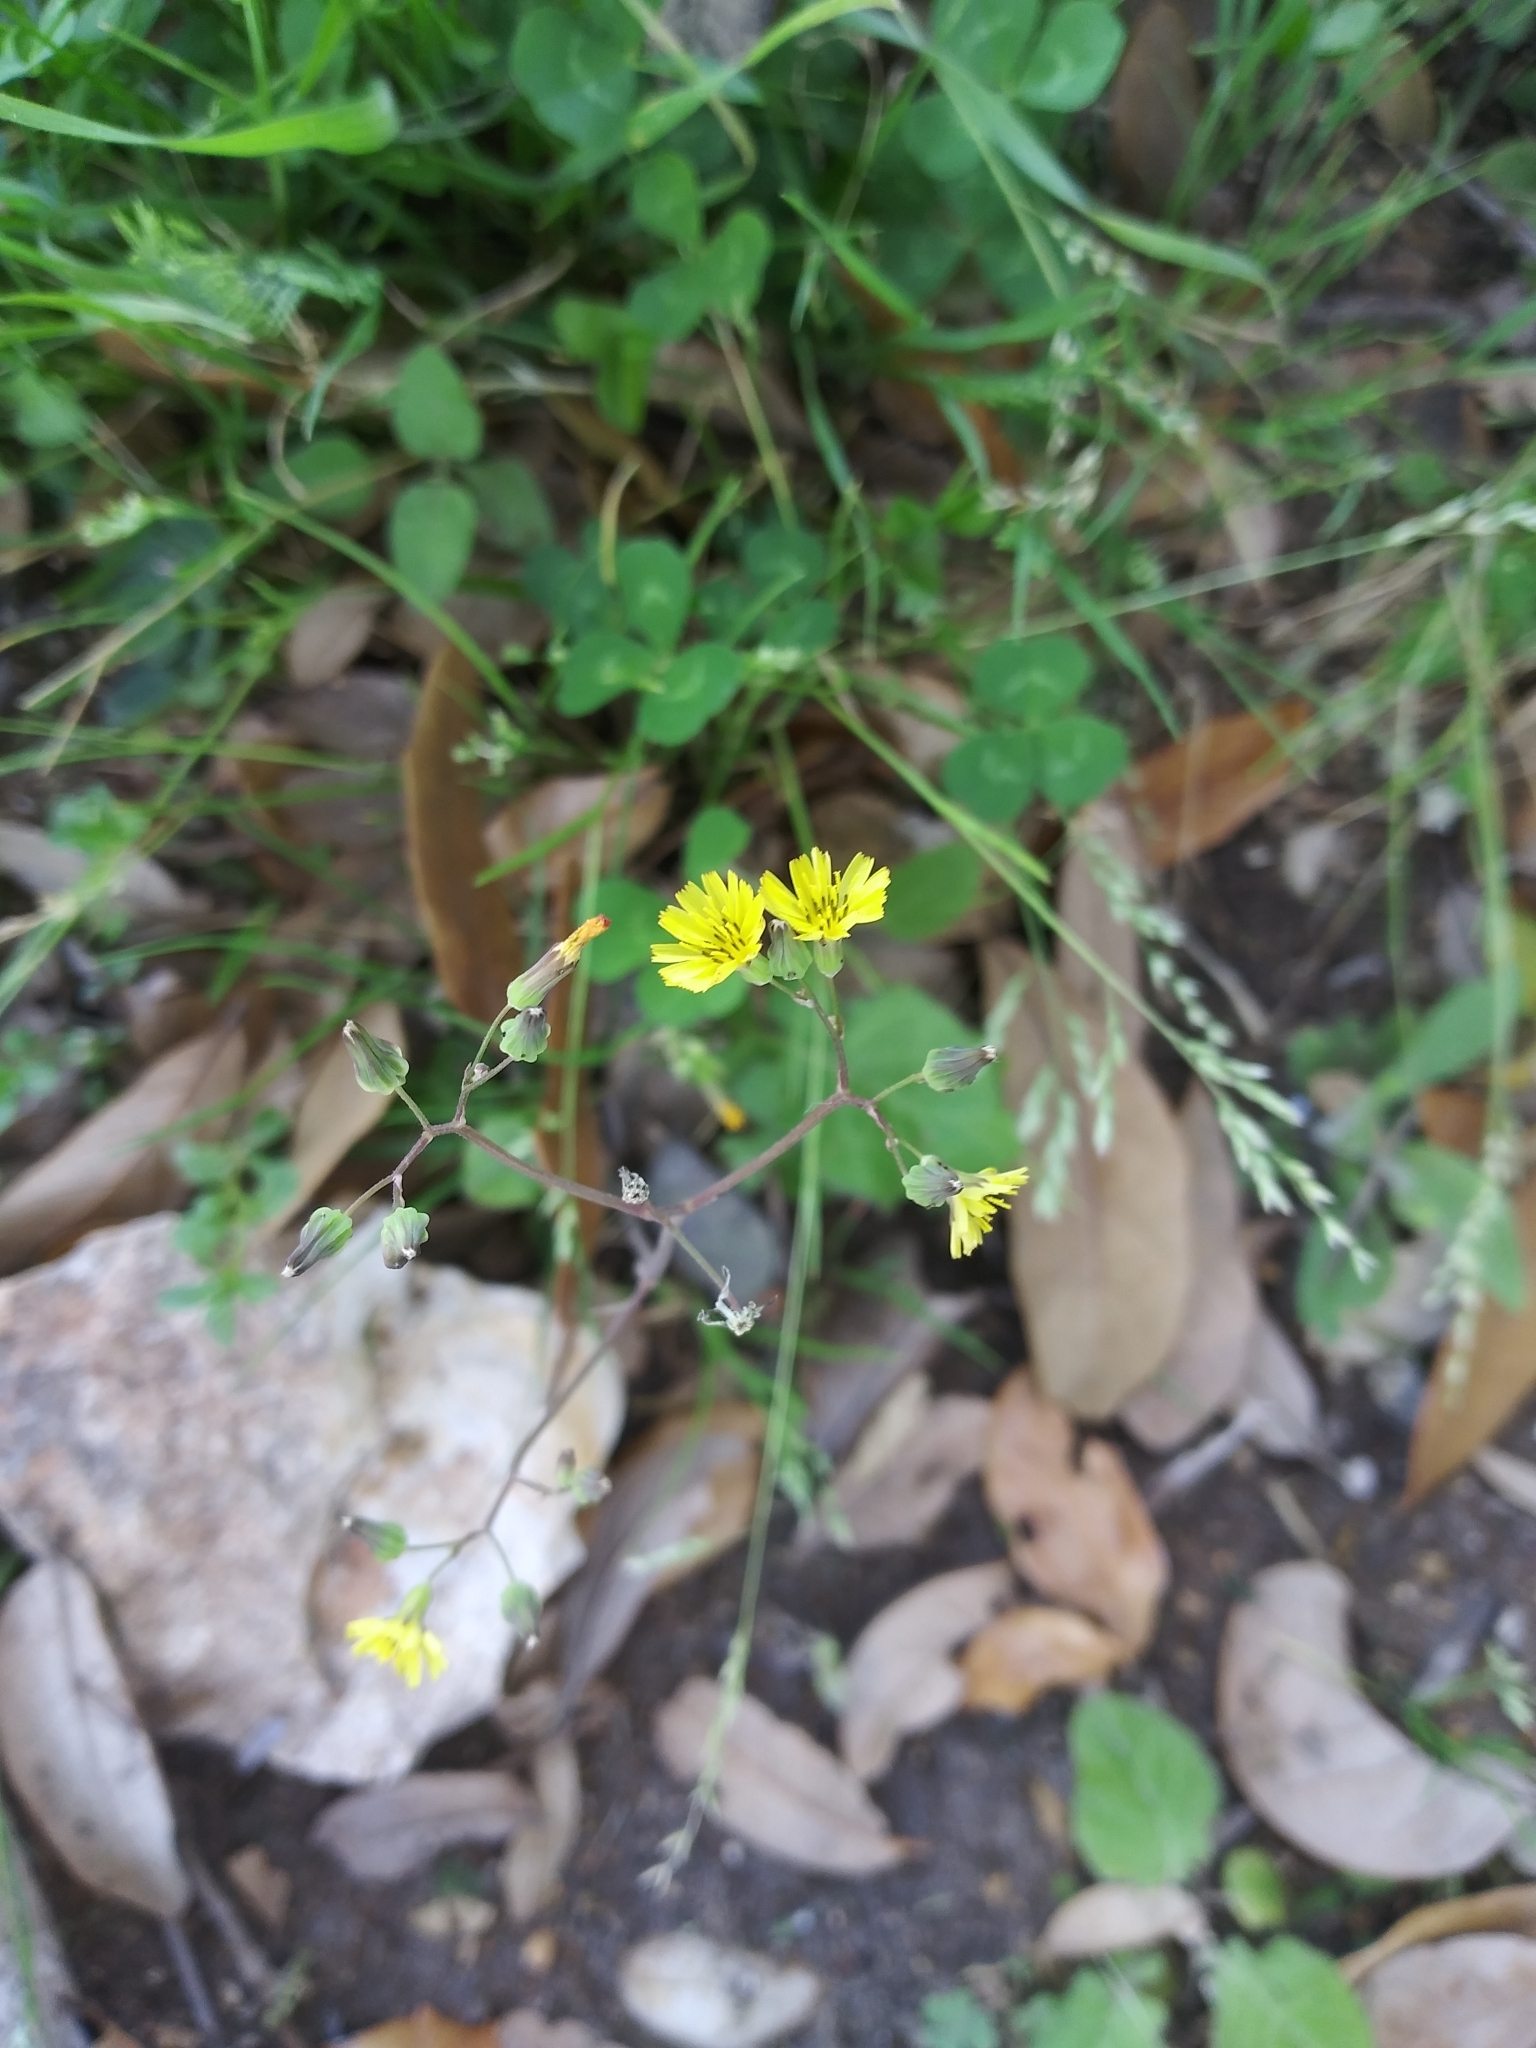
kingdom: Plantae
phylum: Tracheophyta
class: Magnoliopsida
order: Asterales
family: Asteraceae
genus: Youngia
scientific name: Youngia japonica
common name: Oriental false hawksbeard
